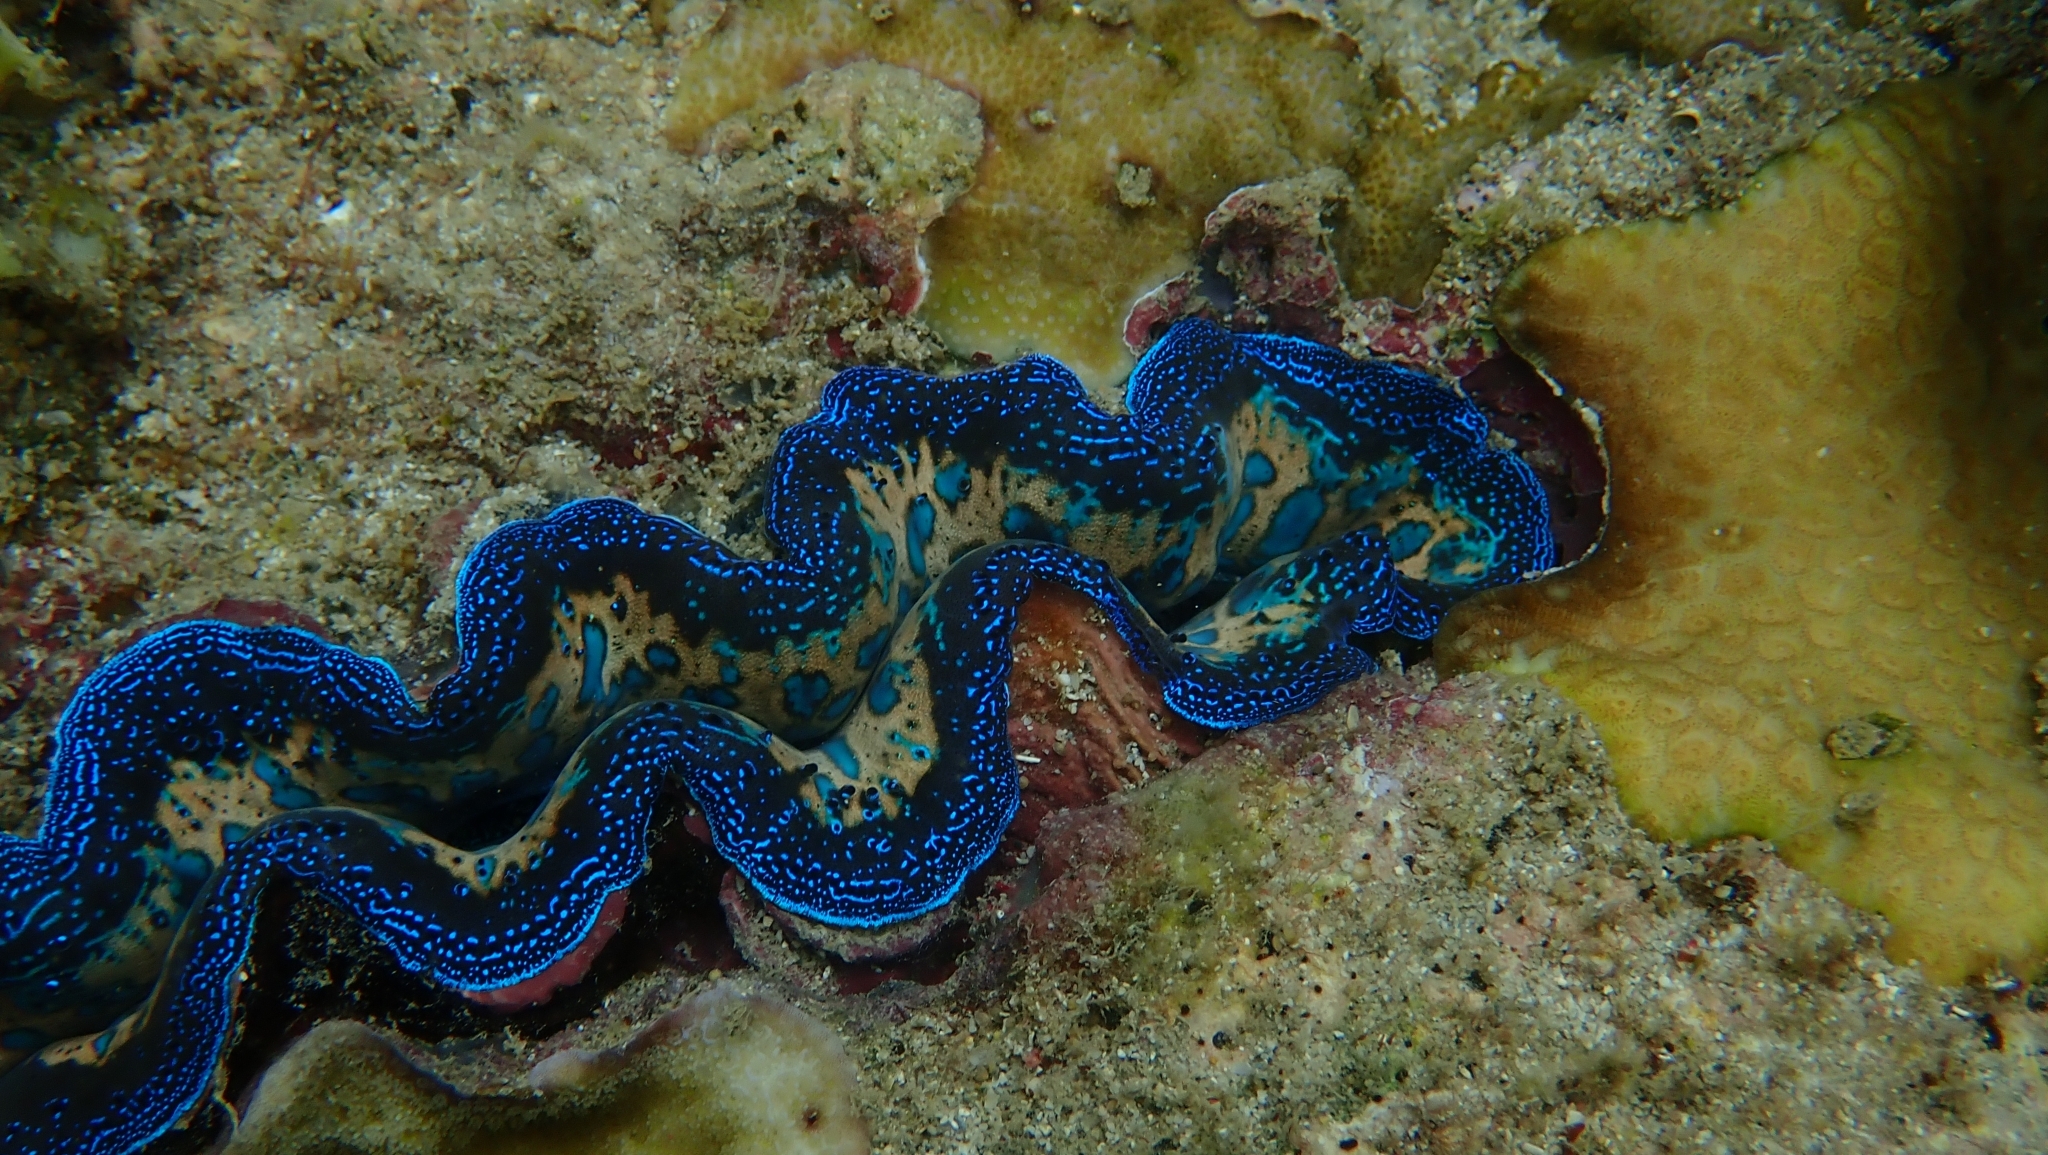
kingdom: Animalia
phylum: Mollusca
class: Bivalvia
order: Cardiida
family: Cardiidae
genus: Tridacna
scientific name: Tridacna crocea
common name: Boring clam
